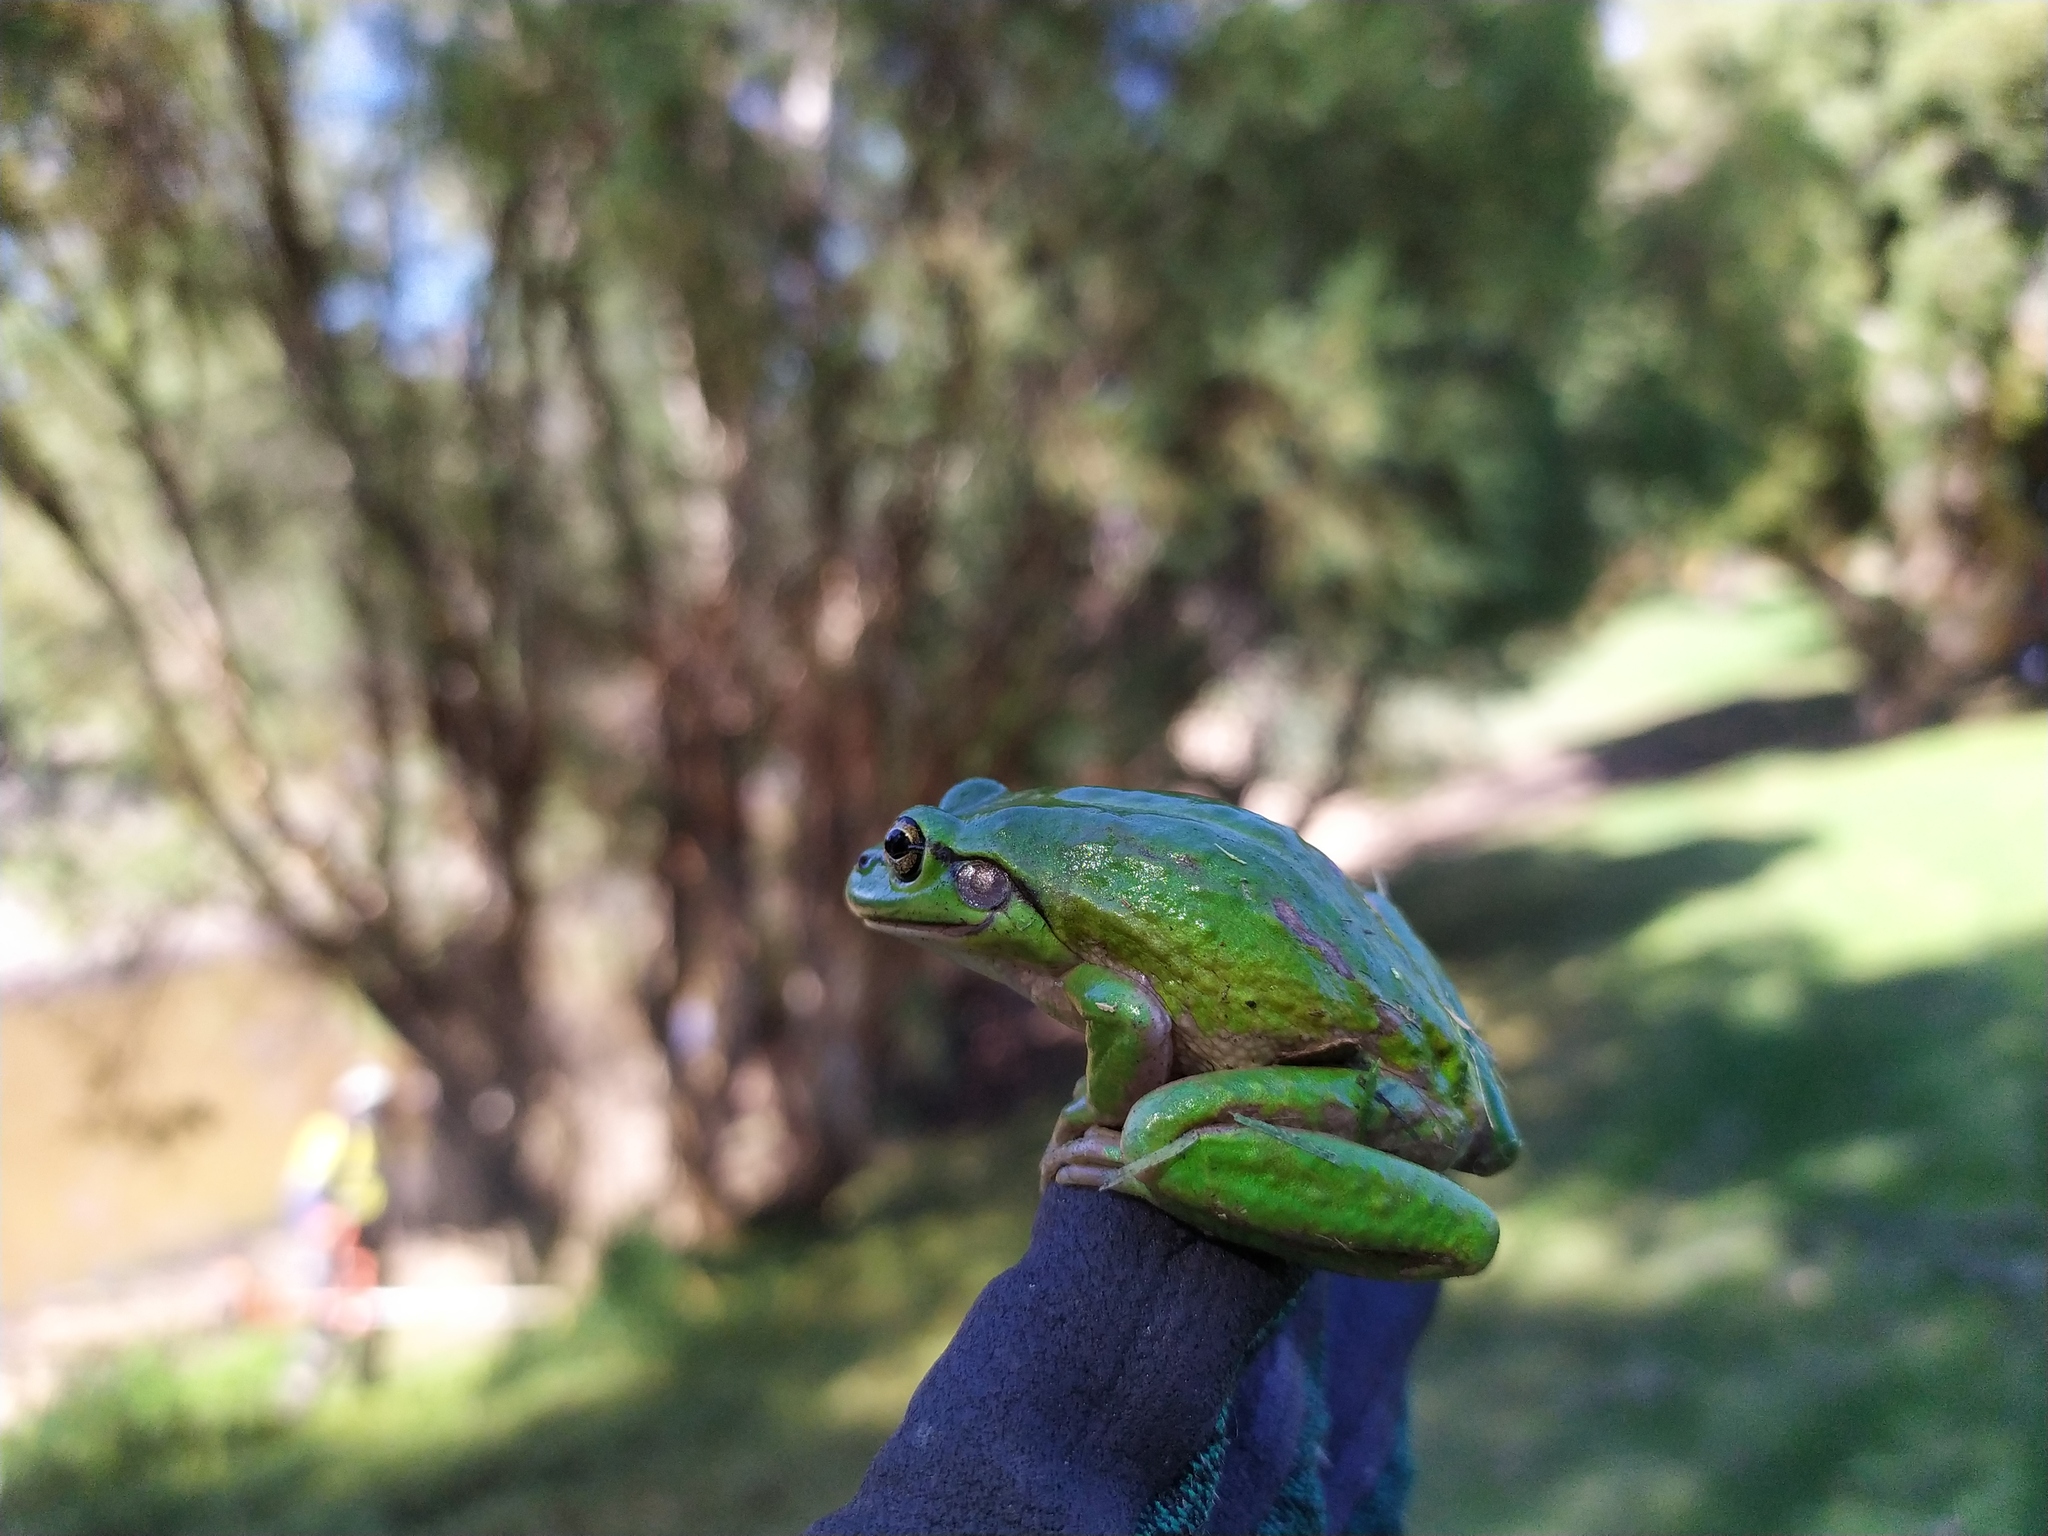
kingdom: Animalia
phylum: Chordata
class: Amphibia
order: Anura
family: Pelodryadidae
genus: Ranoidea
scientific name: Ranoidea moorei
